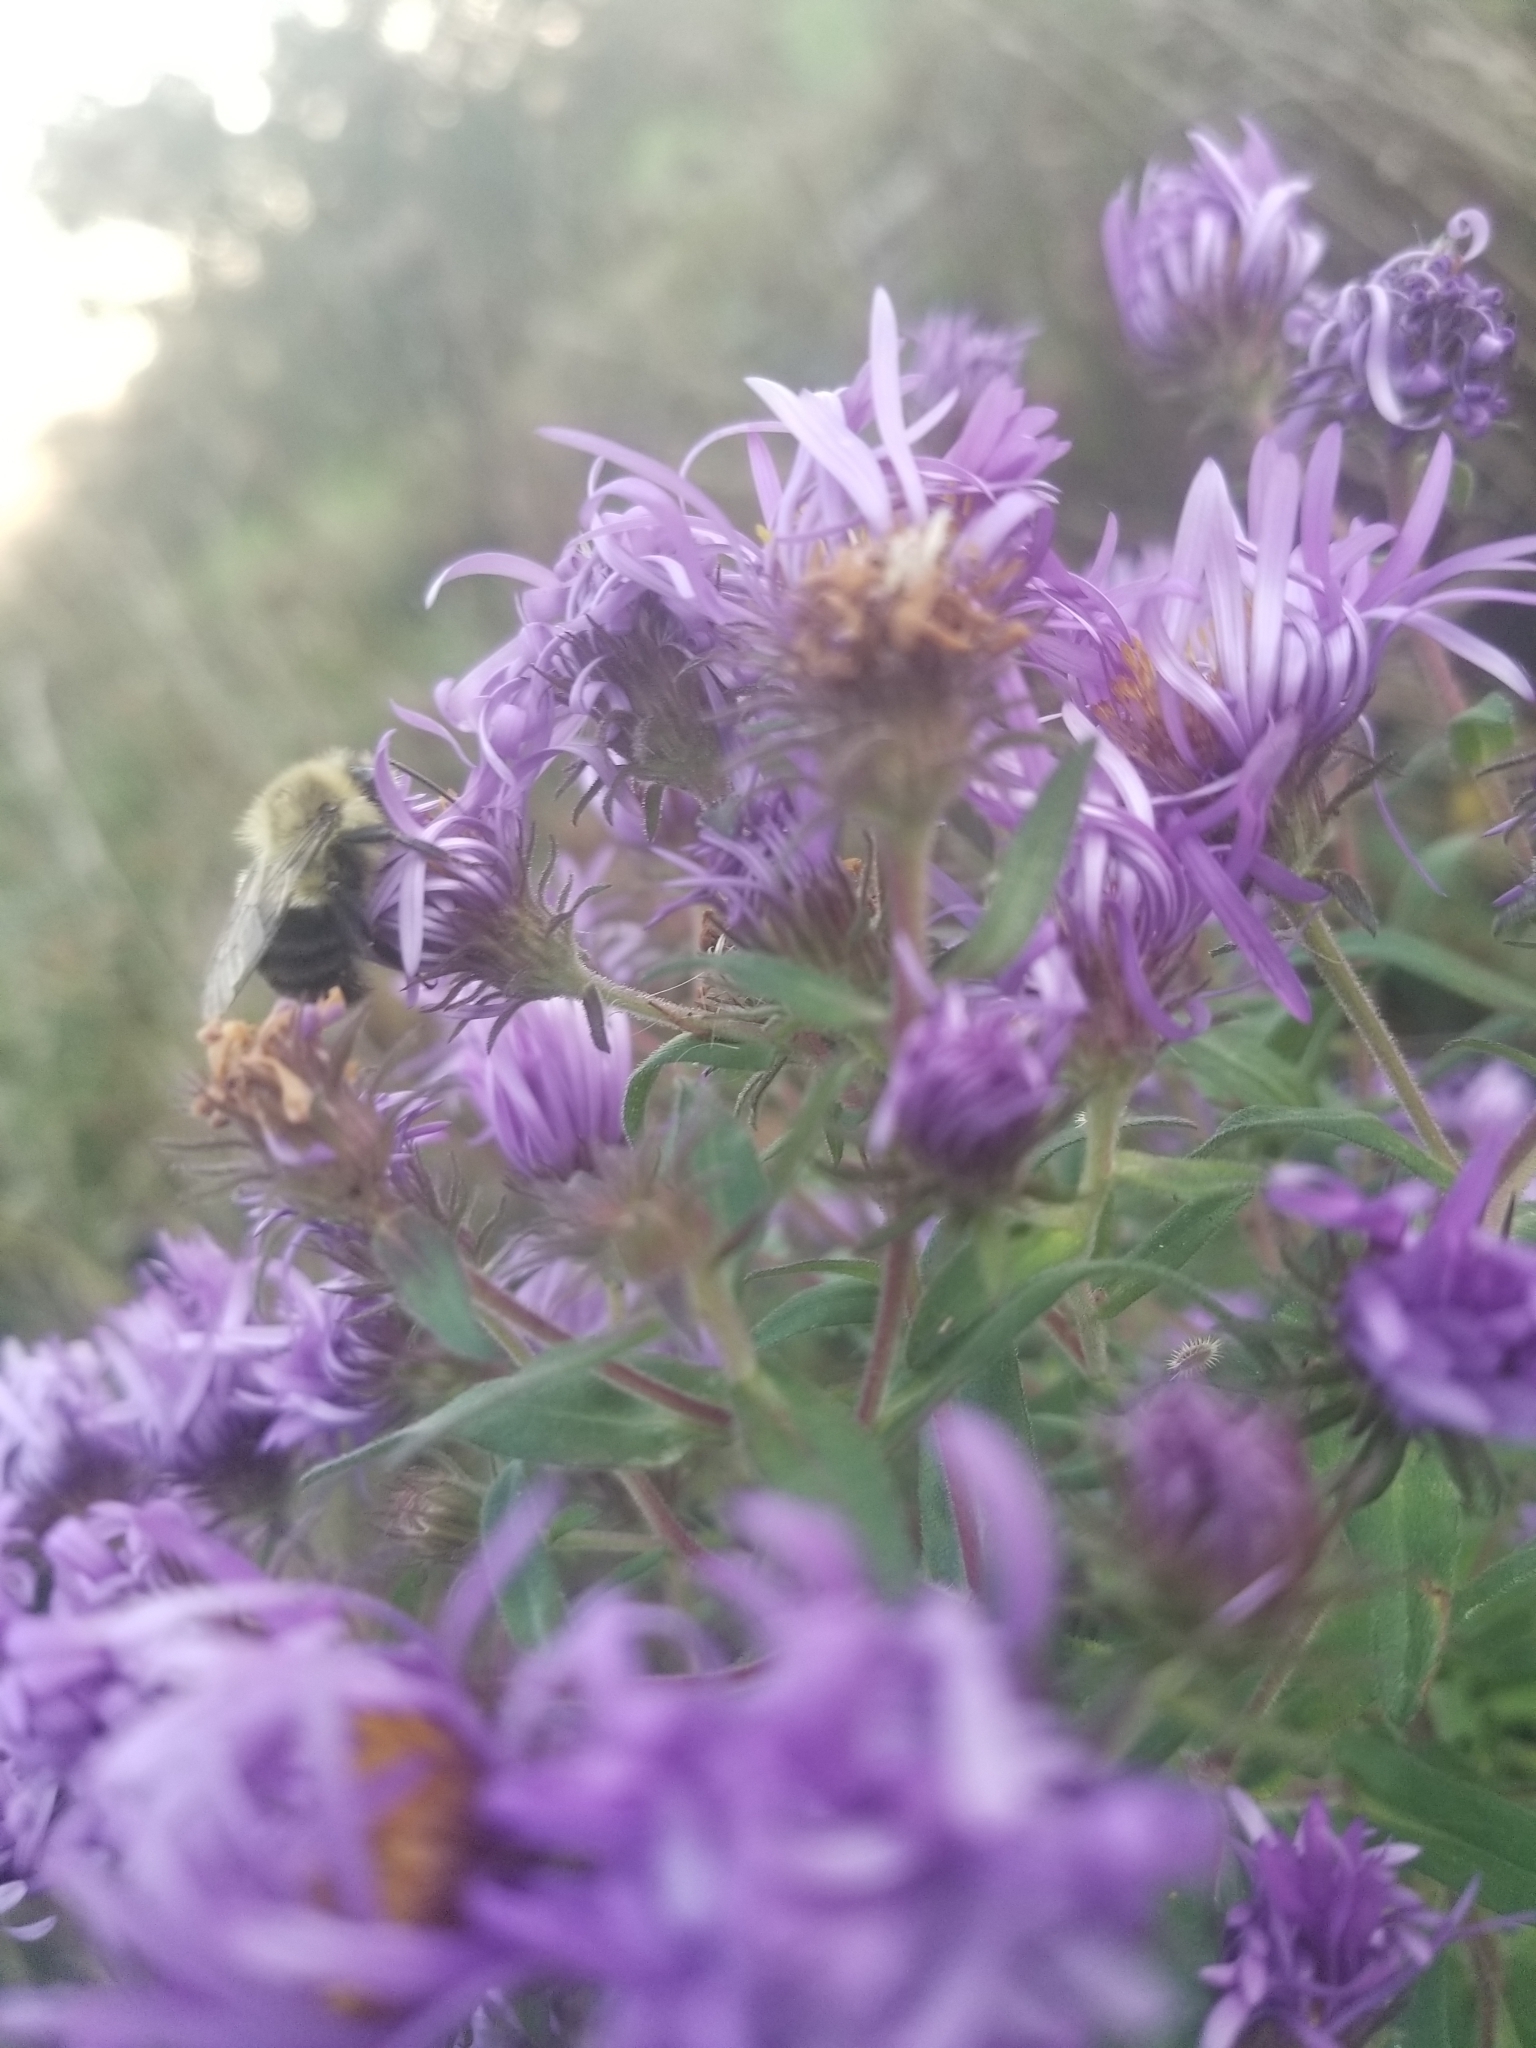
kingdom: Animalia
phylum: Arthropoda
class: Insecta
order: Hymenoptera
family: Apidae
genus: Bombus
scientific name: Bombus impatiens
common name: Common eastern bumble bee
